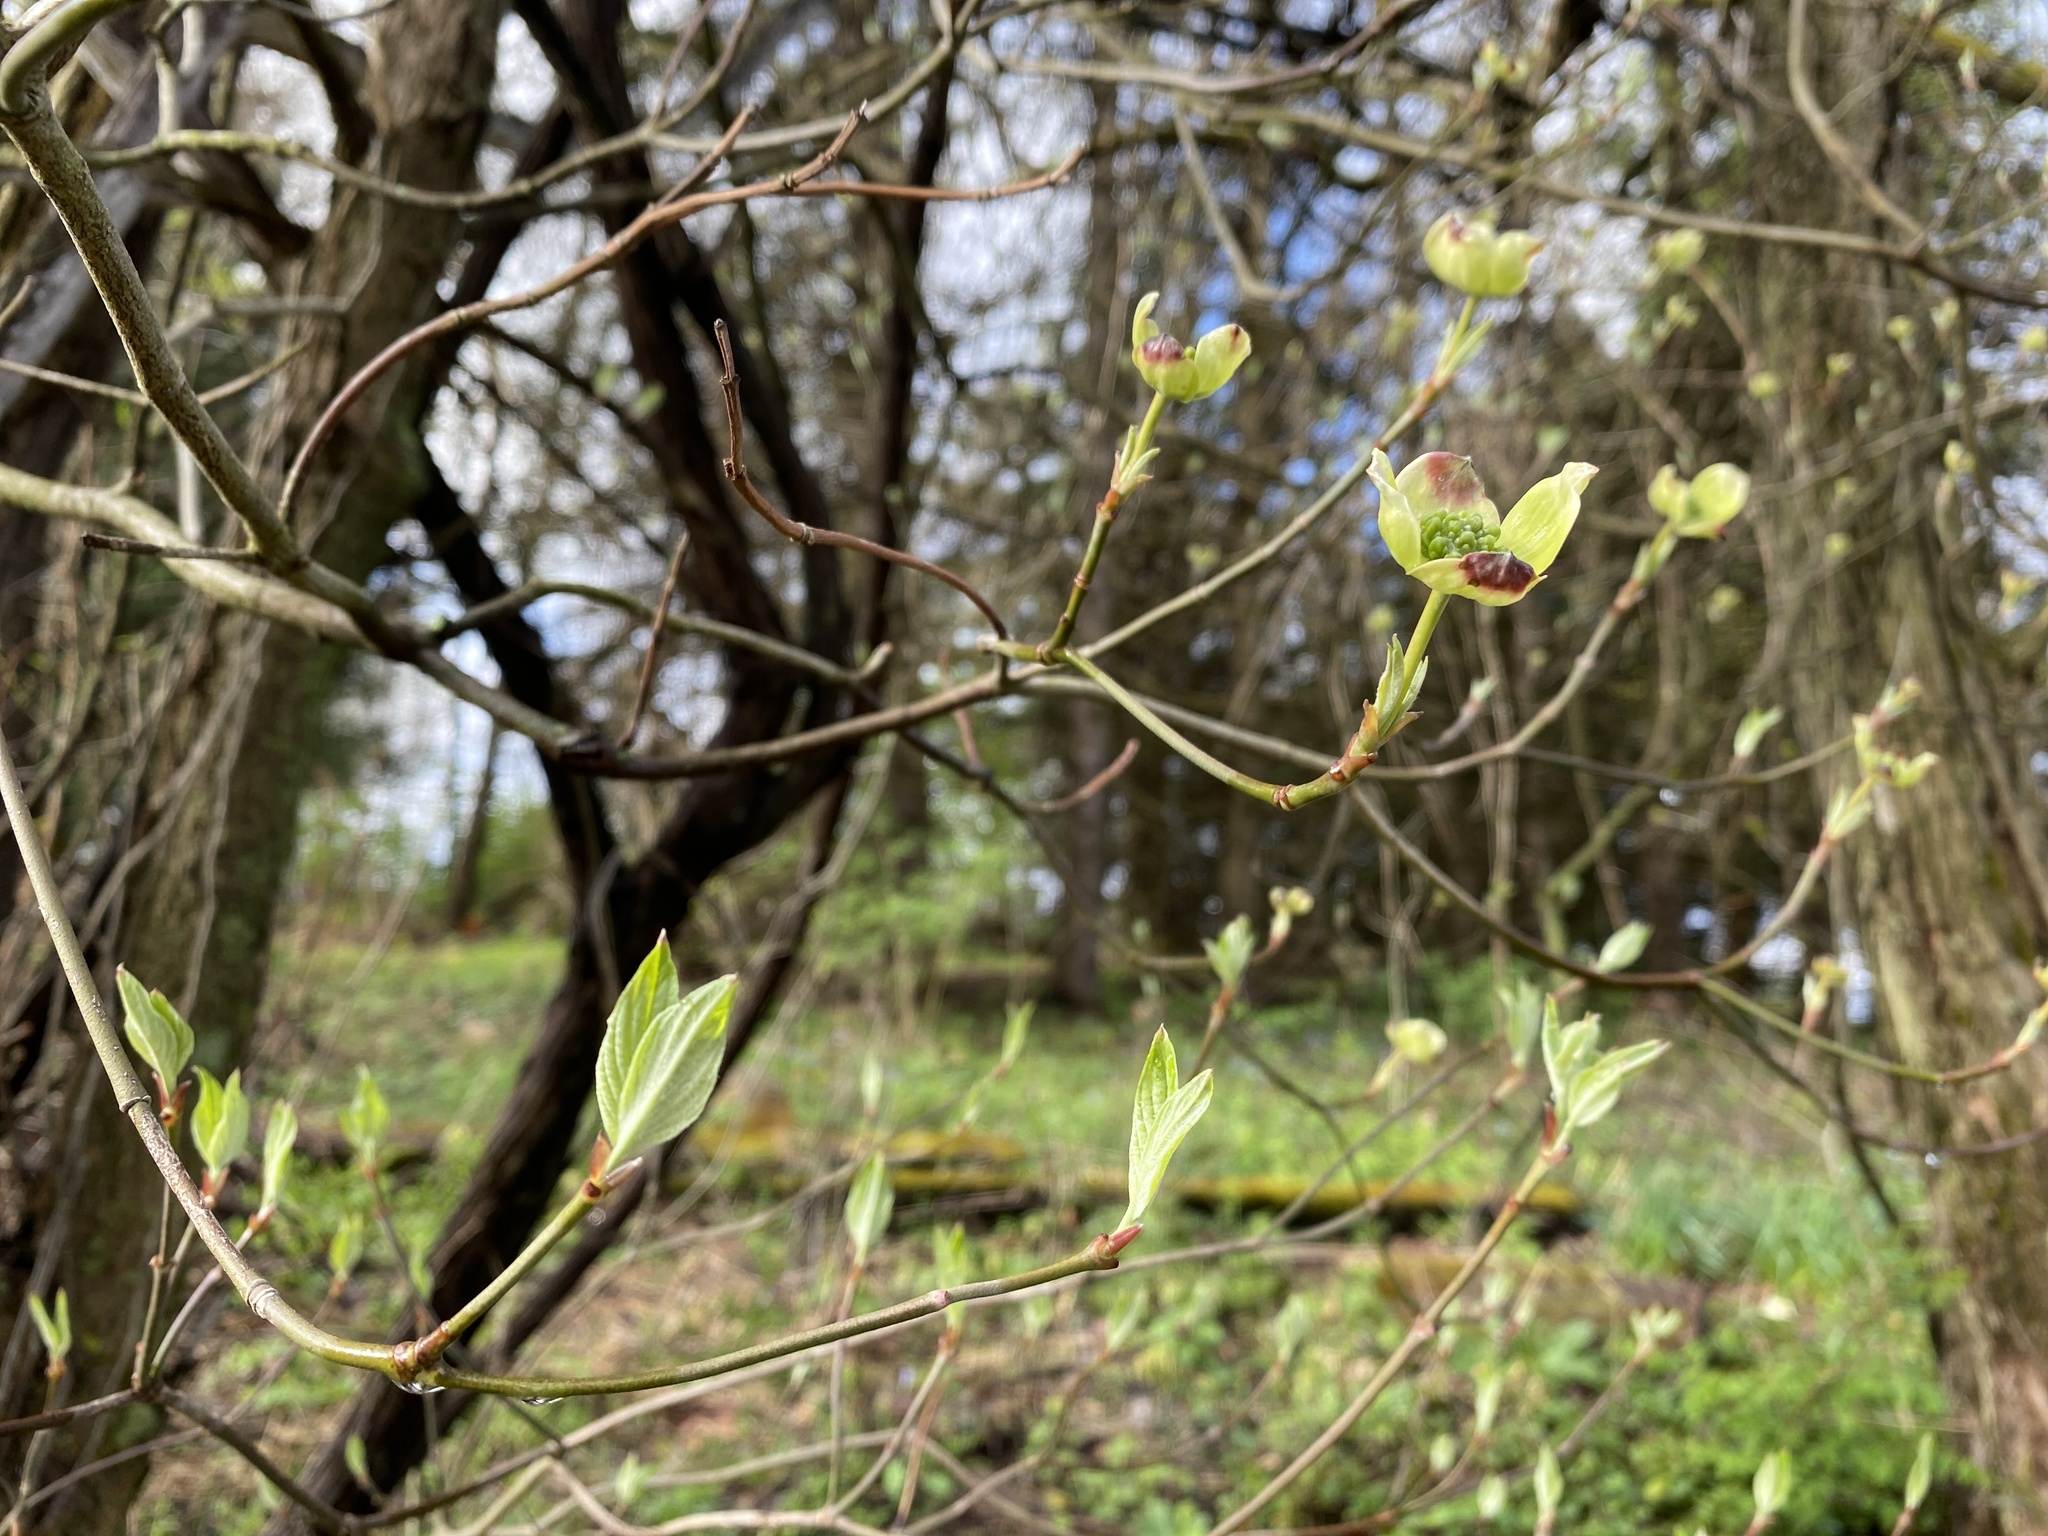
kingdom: Plantae
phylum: Tracheophyta
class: Magnoliopsida
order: Cornales
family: Cornaceae
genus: Cornus
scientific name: Cornus florida
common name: Flowering dogwood
